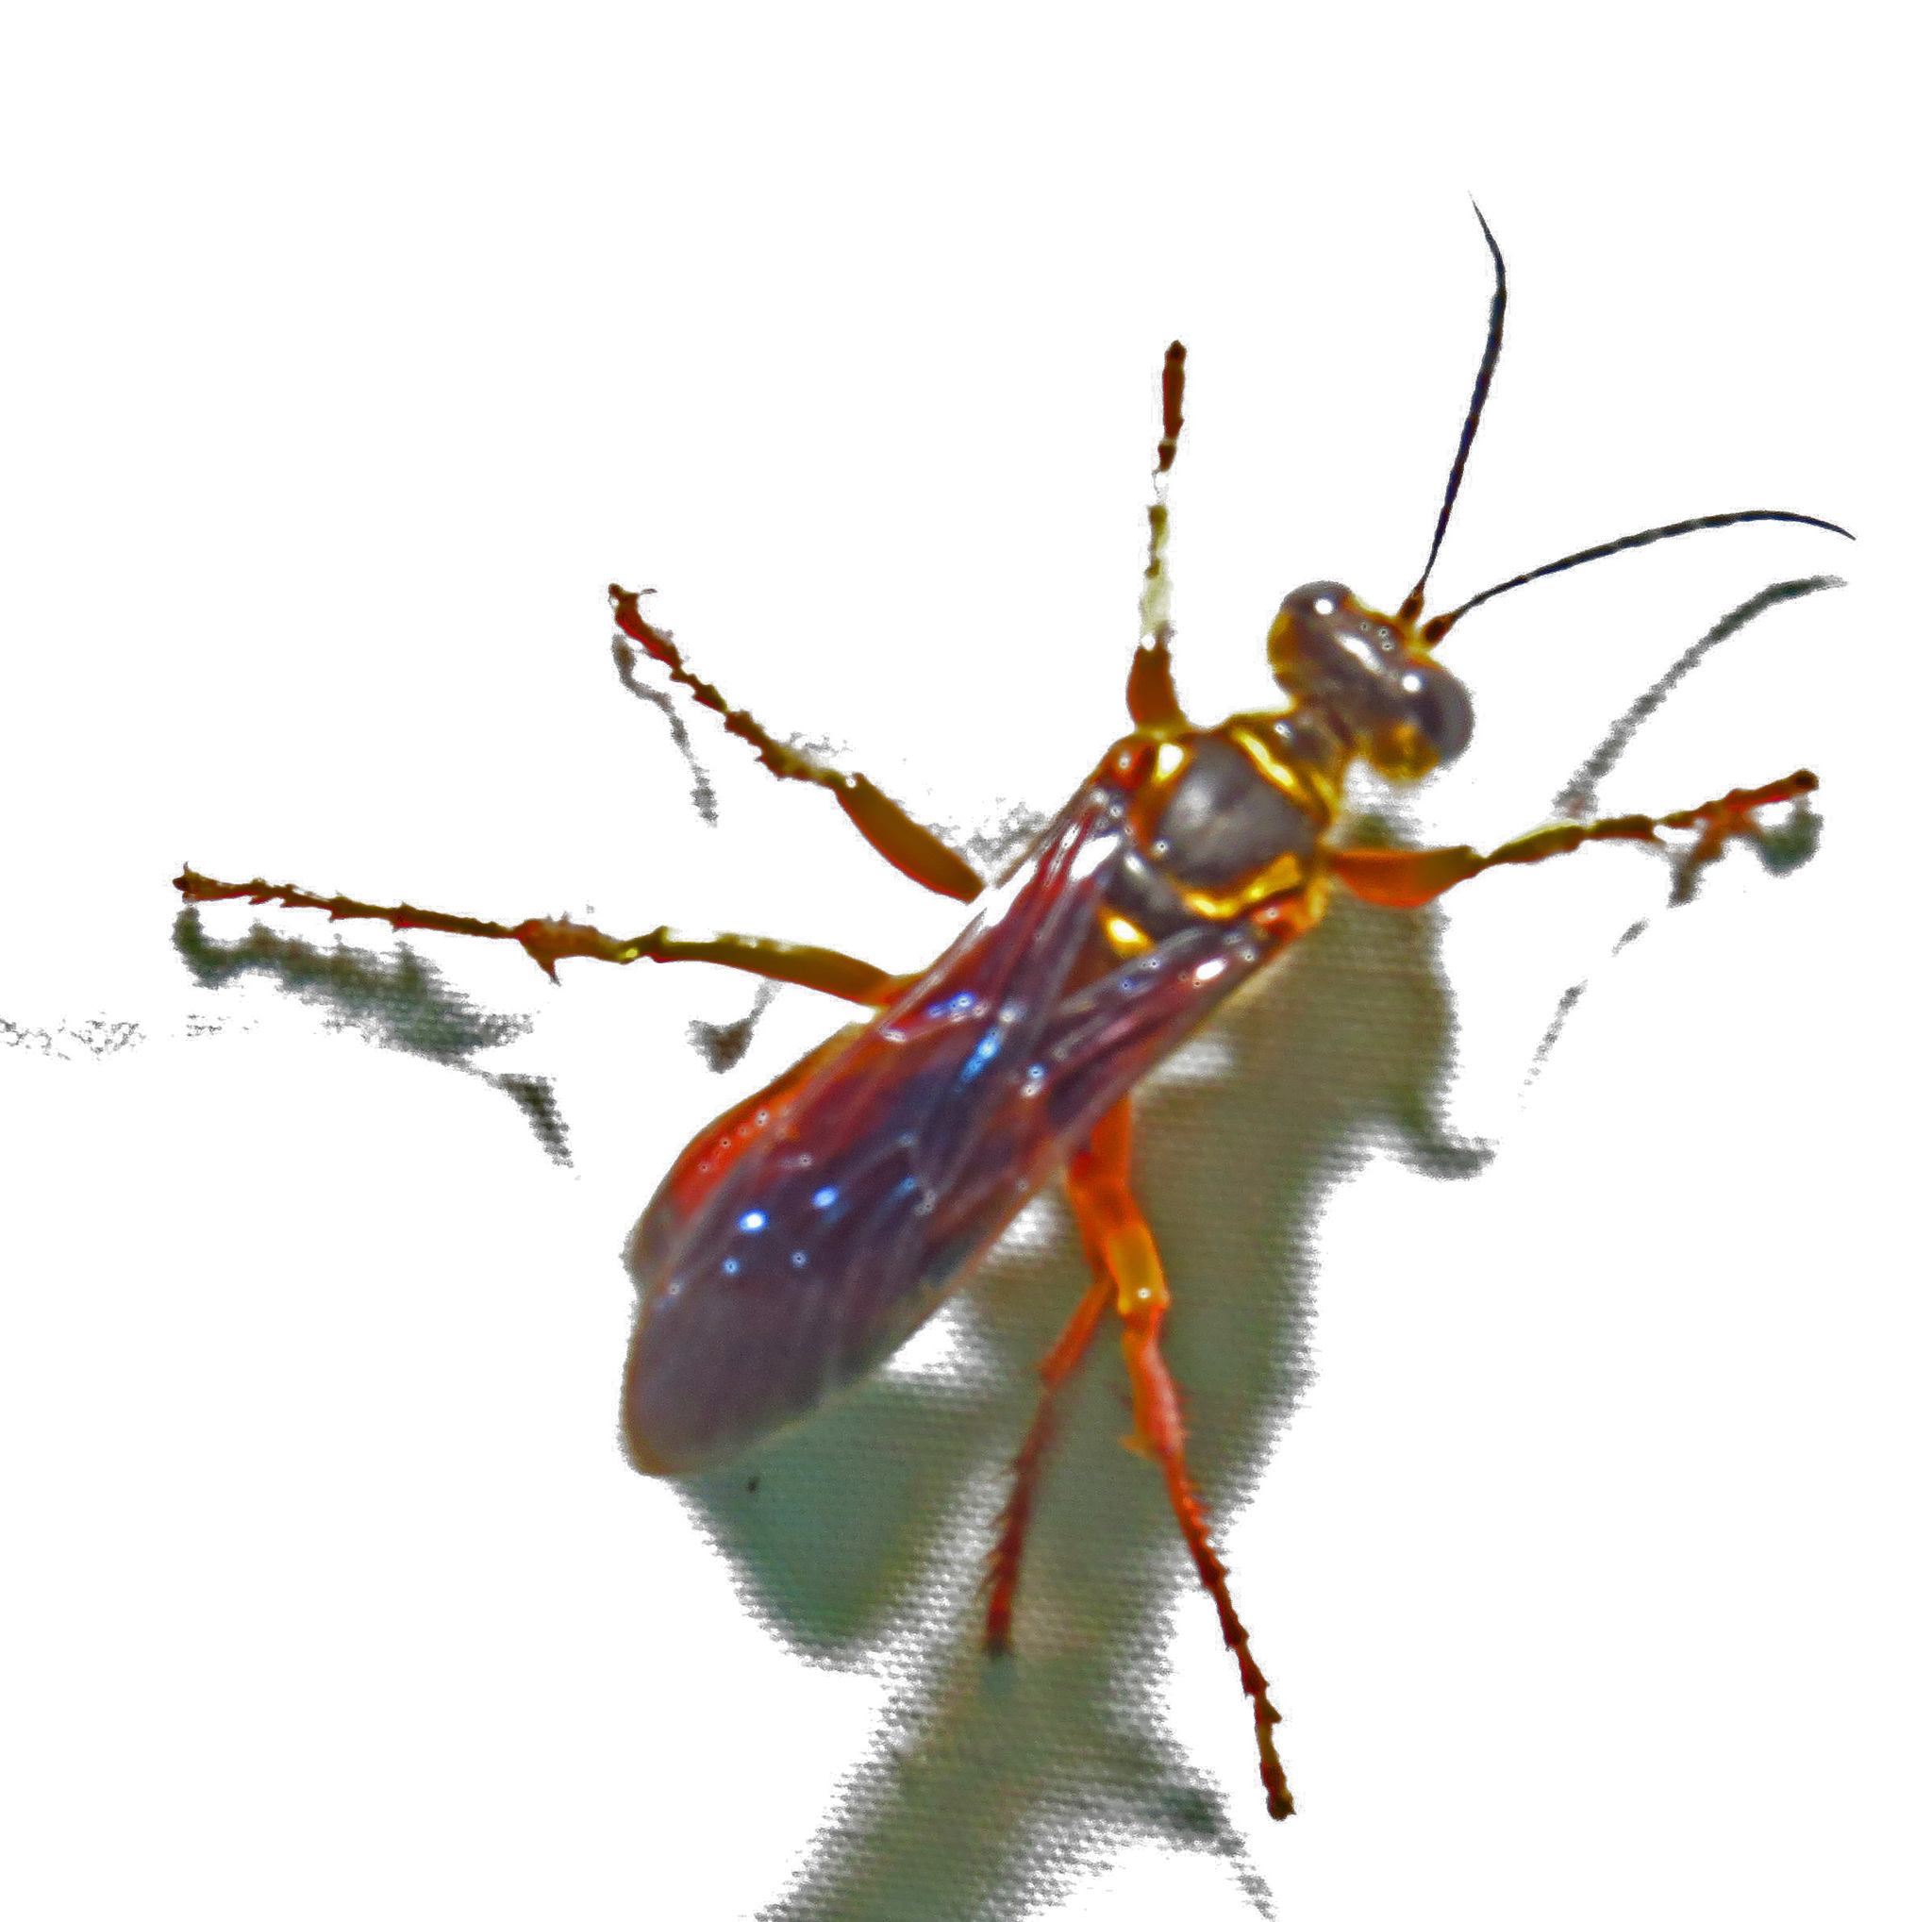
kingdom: Animalia
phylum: Arthropoda
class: Insecta
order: Hymenoptera
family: Sphecidae
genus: Sphex
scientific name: Sphex ichneumoneus
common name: Great golden digger wasp
